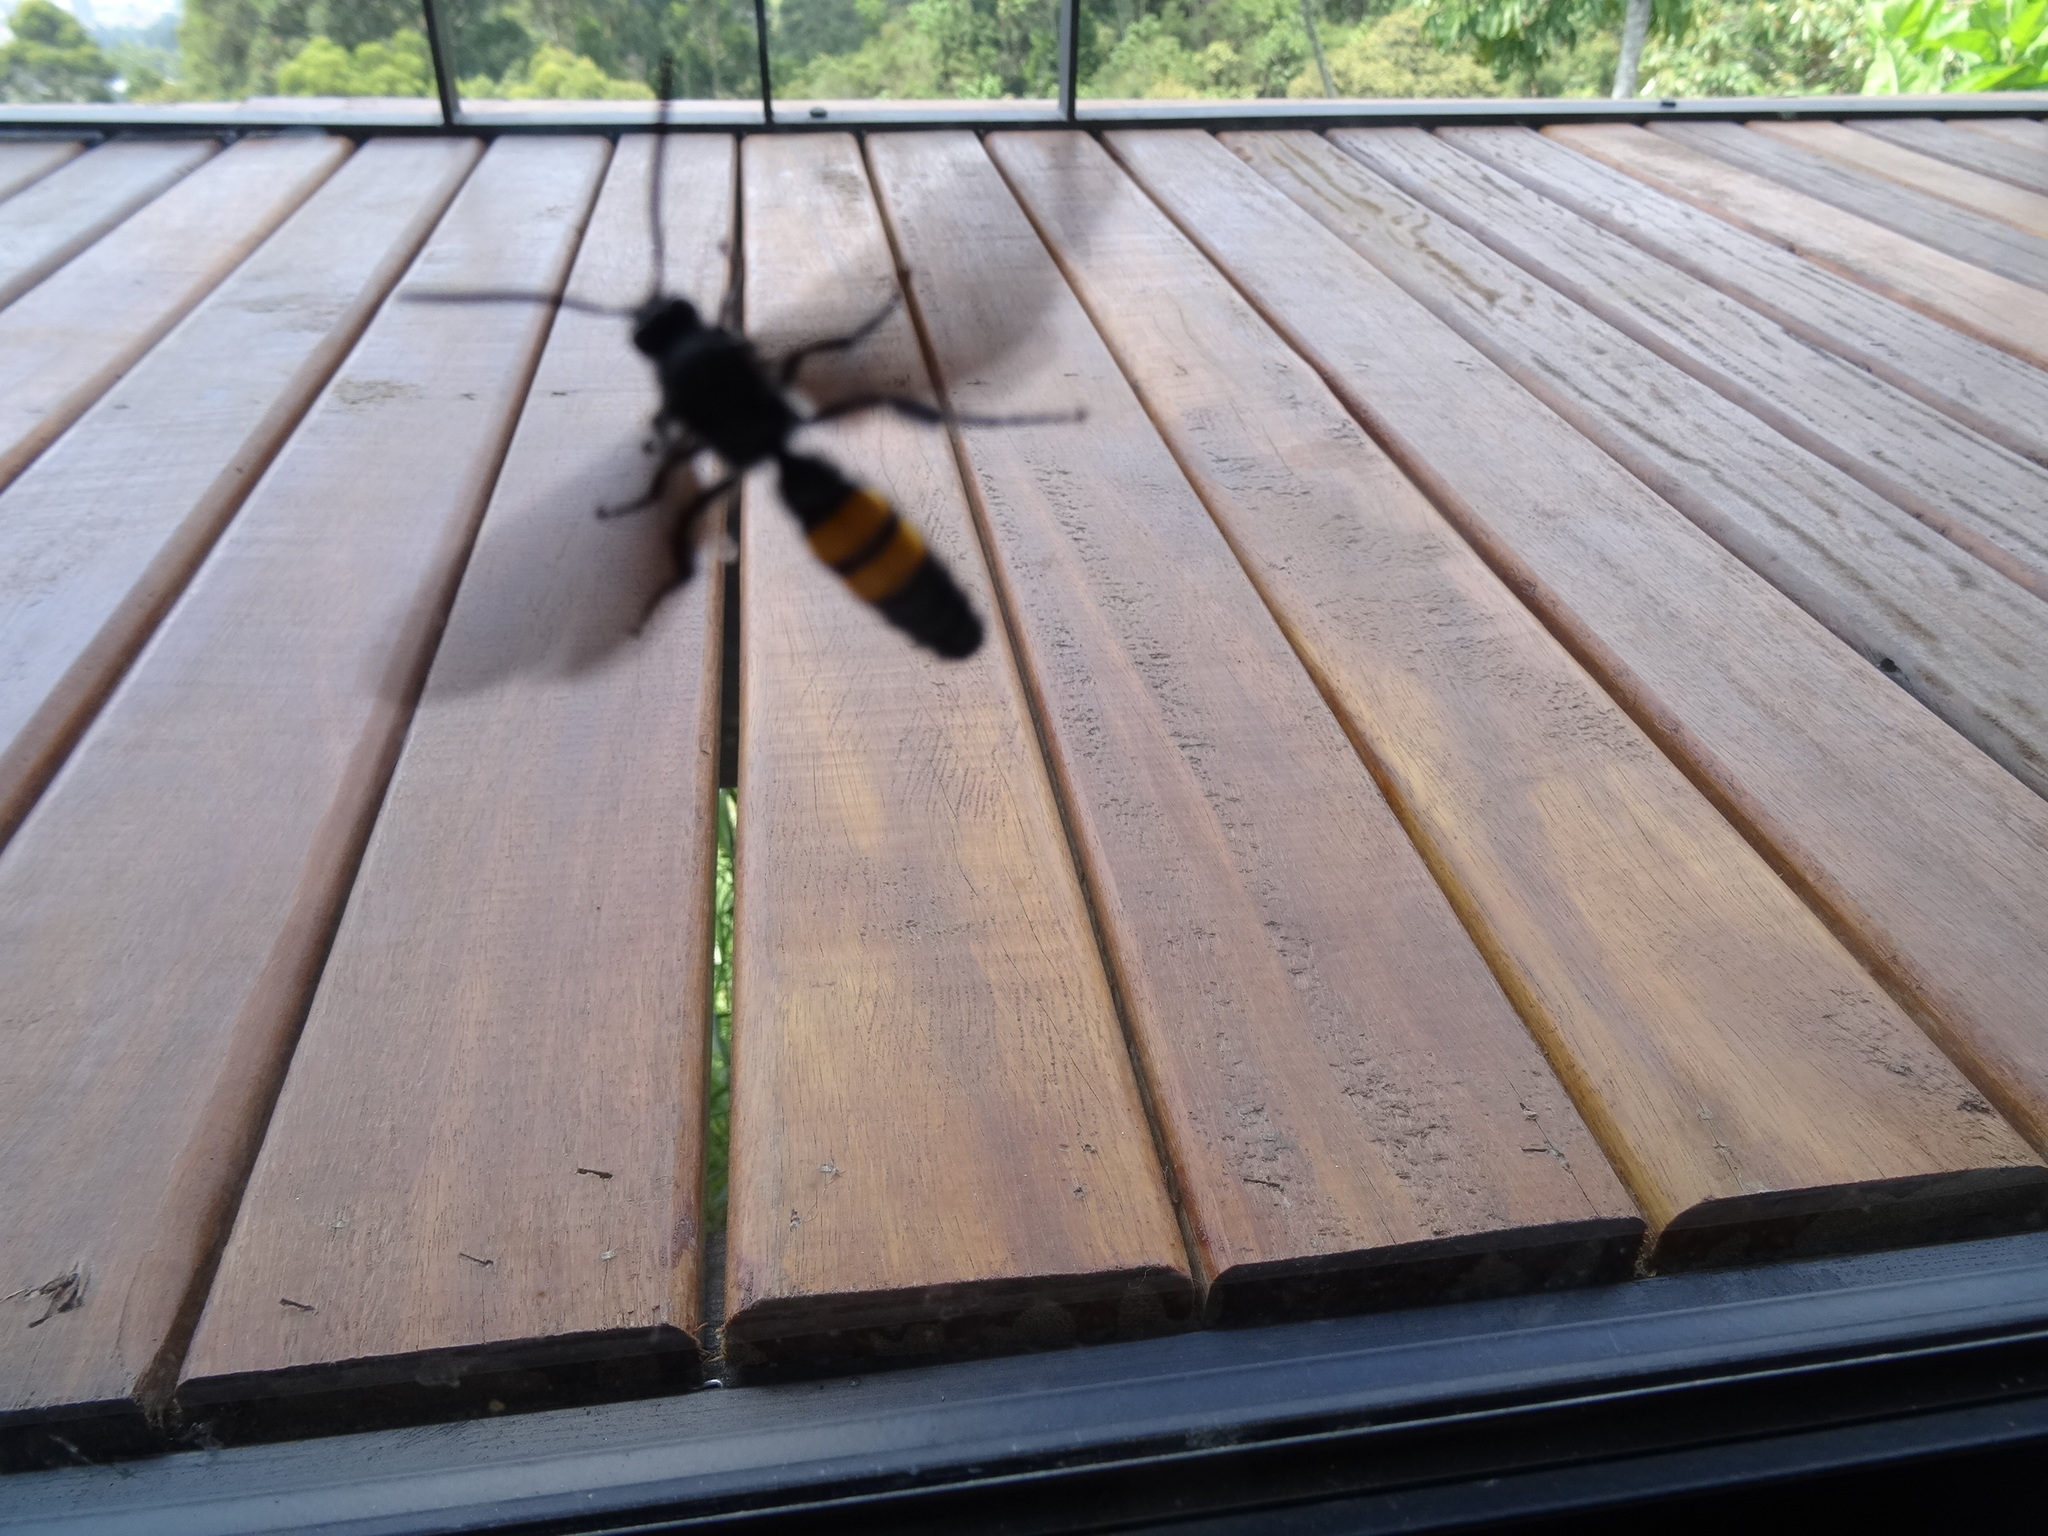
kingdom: Animalia
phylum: Arthropoda
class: Insecta
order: Hymenoptera
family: Scoliidae
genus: Pygodasis
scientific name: Pygodasis ephippium
